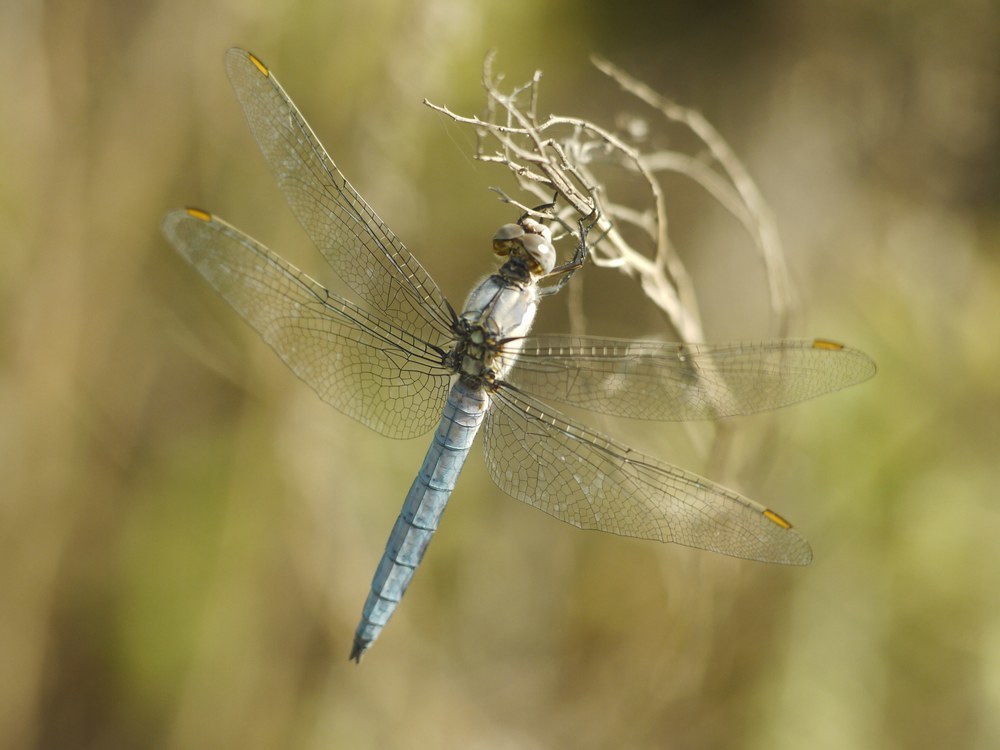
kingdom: Animalia
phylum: Arthropoda
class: Insecta
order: Odonata
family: Libellulidae
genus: Orthetrum
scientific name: Orthetrum brunneum
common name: Southern skimmer
